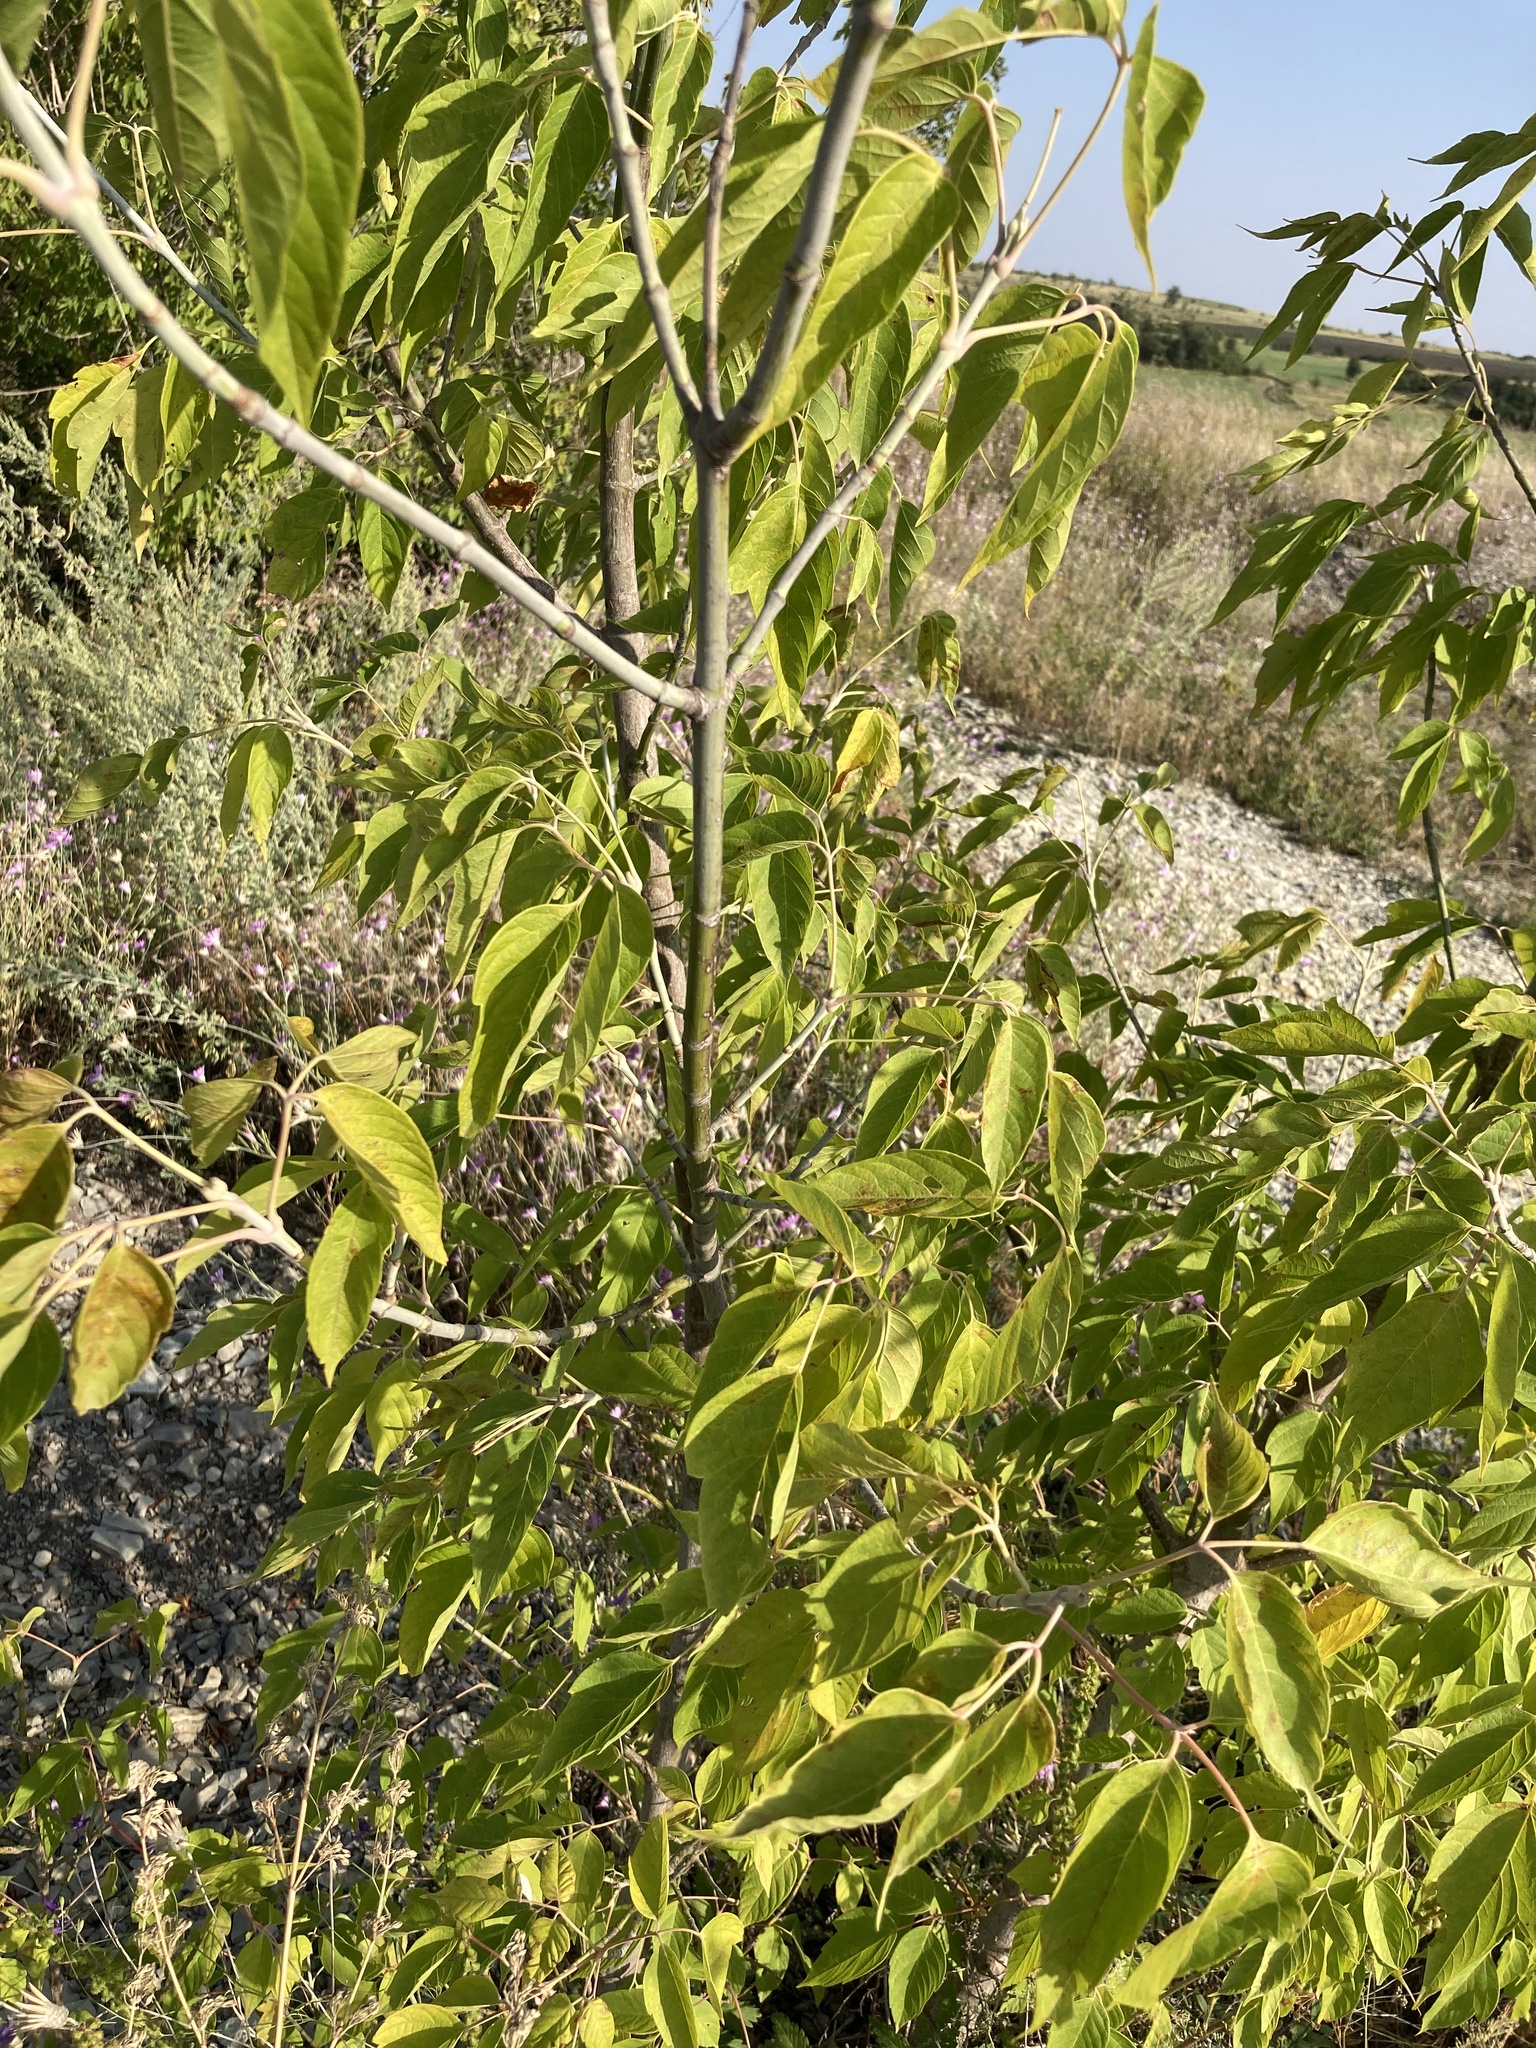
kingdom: Plantae
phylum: Tracheophyta
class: Magnoliopsida
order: Sapindales
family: Sapindaceae
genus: Acer
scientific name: Acer negundo
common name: Ashleaf maple
